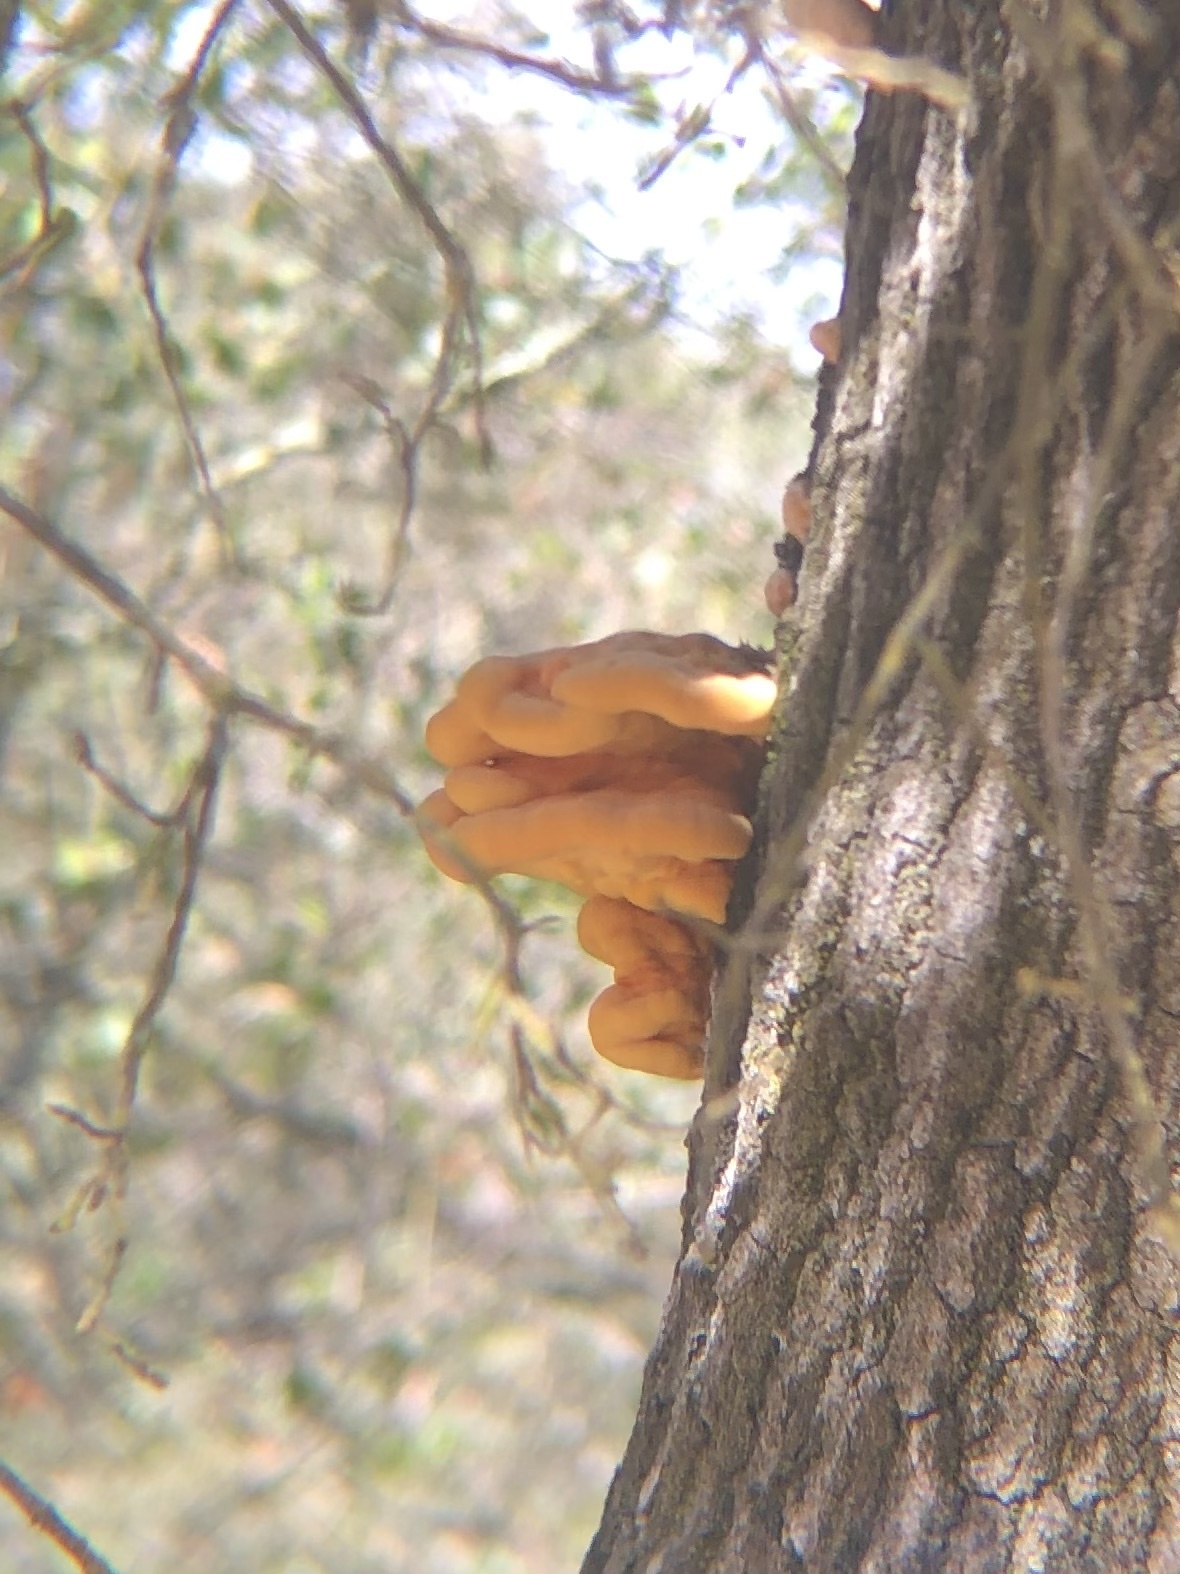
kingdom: Fungi
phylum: Basidiomycota
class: Agaricomycetes
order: Polyporales
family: Laetiporaceae
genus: Laetiporus
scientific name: Laetiporus gilbertsonii
